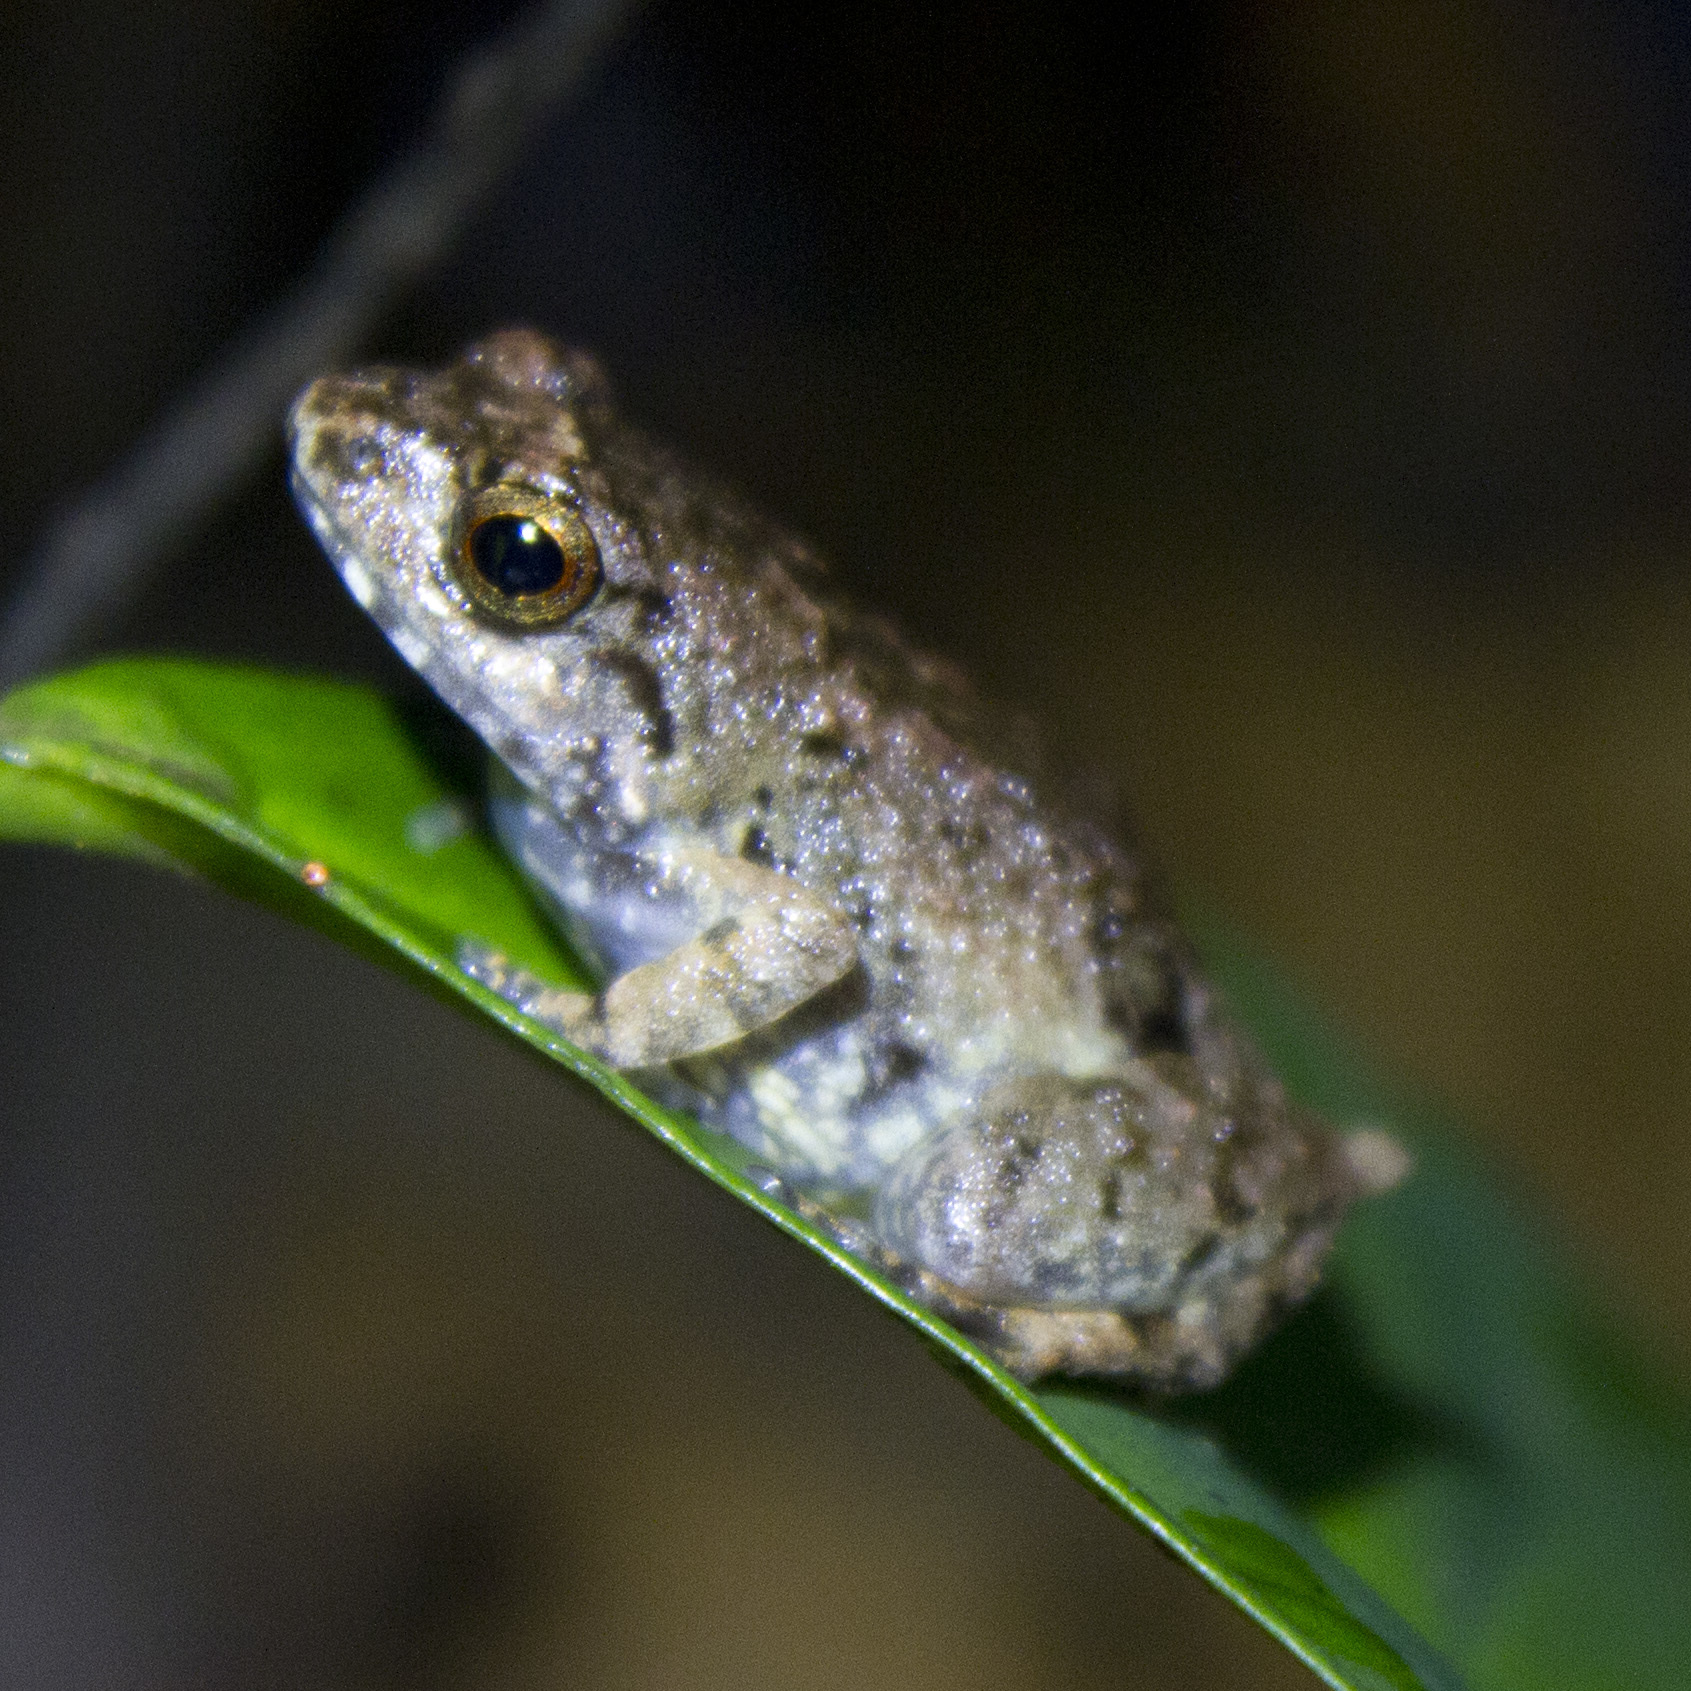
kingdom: Animalia
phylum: Chordata
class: Amphibia
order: Anura
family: Arthroleptidae
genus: Arthroleptis
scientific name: Arthroleptis poecilonotus
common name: West african screeching frog
